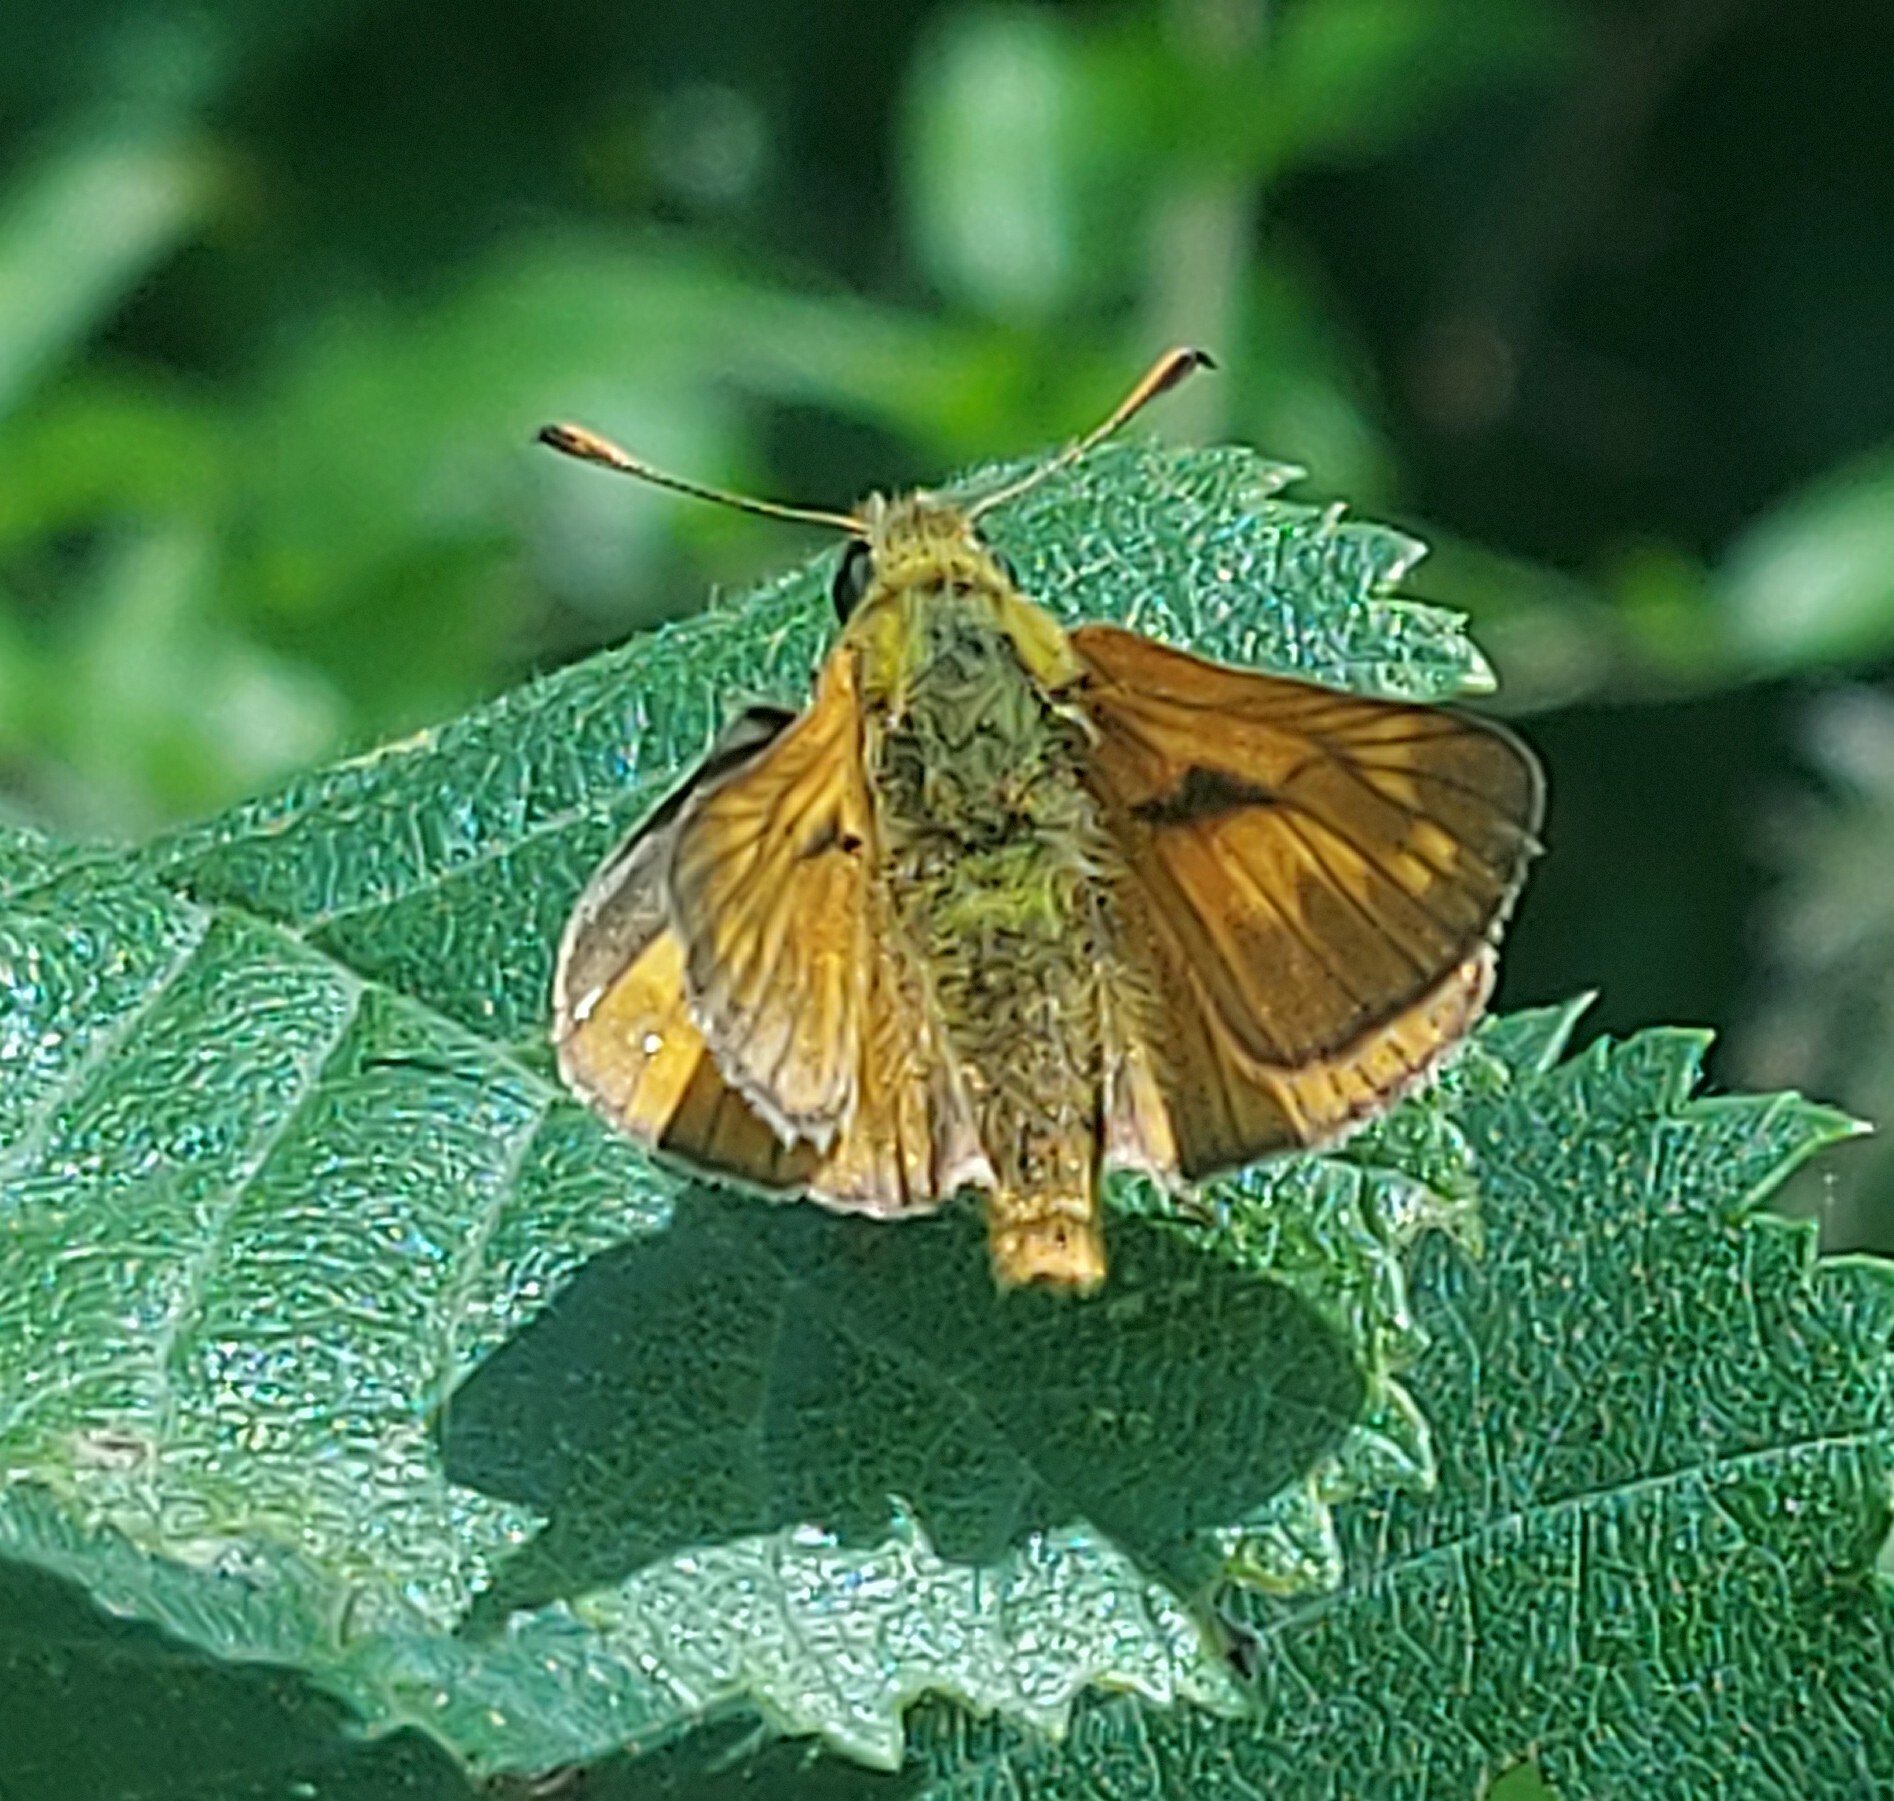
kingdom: Animalia
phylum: Arthropoda
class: Insecta
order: Lepidoptera
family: Hesperiidae
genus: Ochlodes
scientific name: Ochlodes venata
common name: Large skipper
